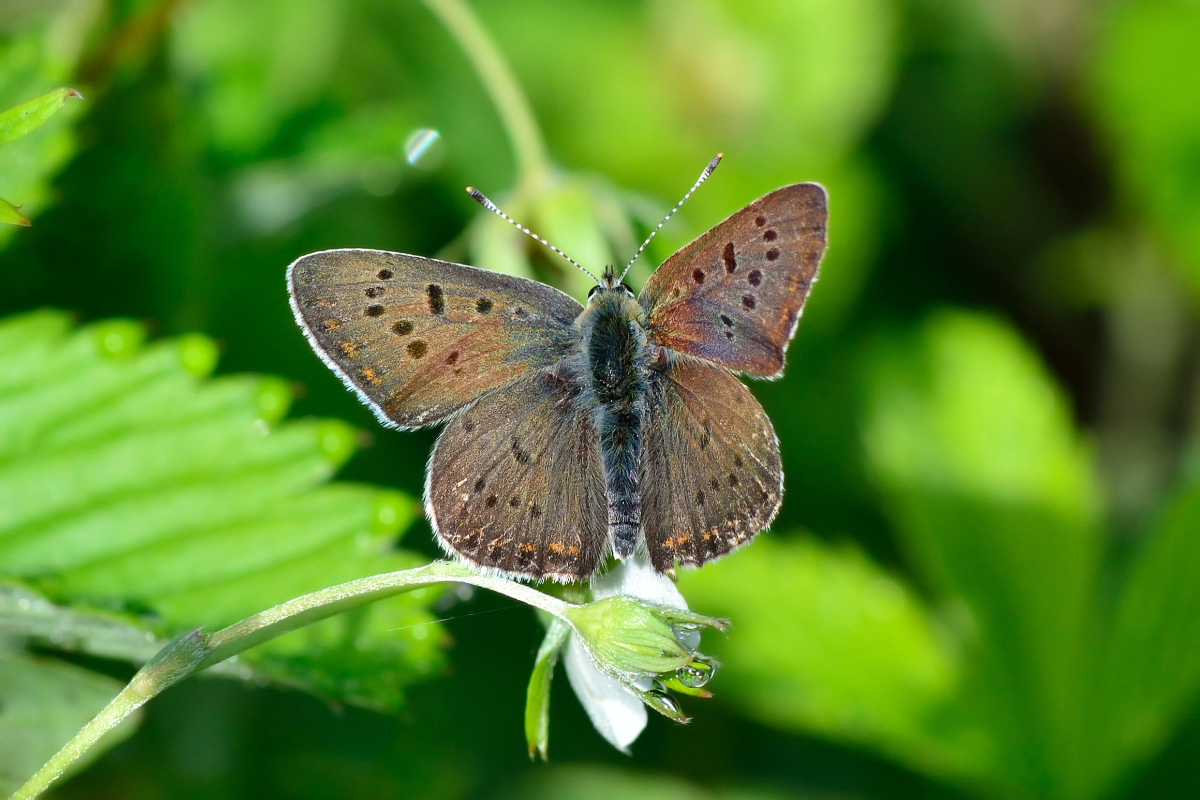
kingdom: Animalia
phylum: Arthropoda
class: Insecta
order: Lepidoptera
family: Lycaenidae
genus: Loweia
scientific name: Loweia tityrus
